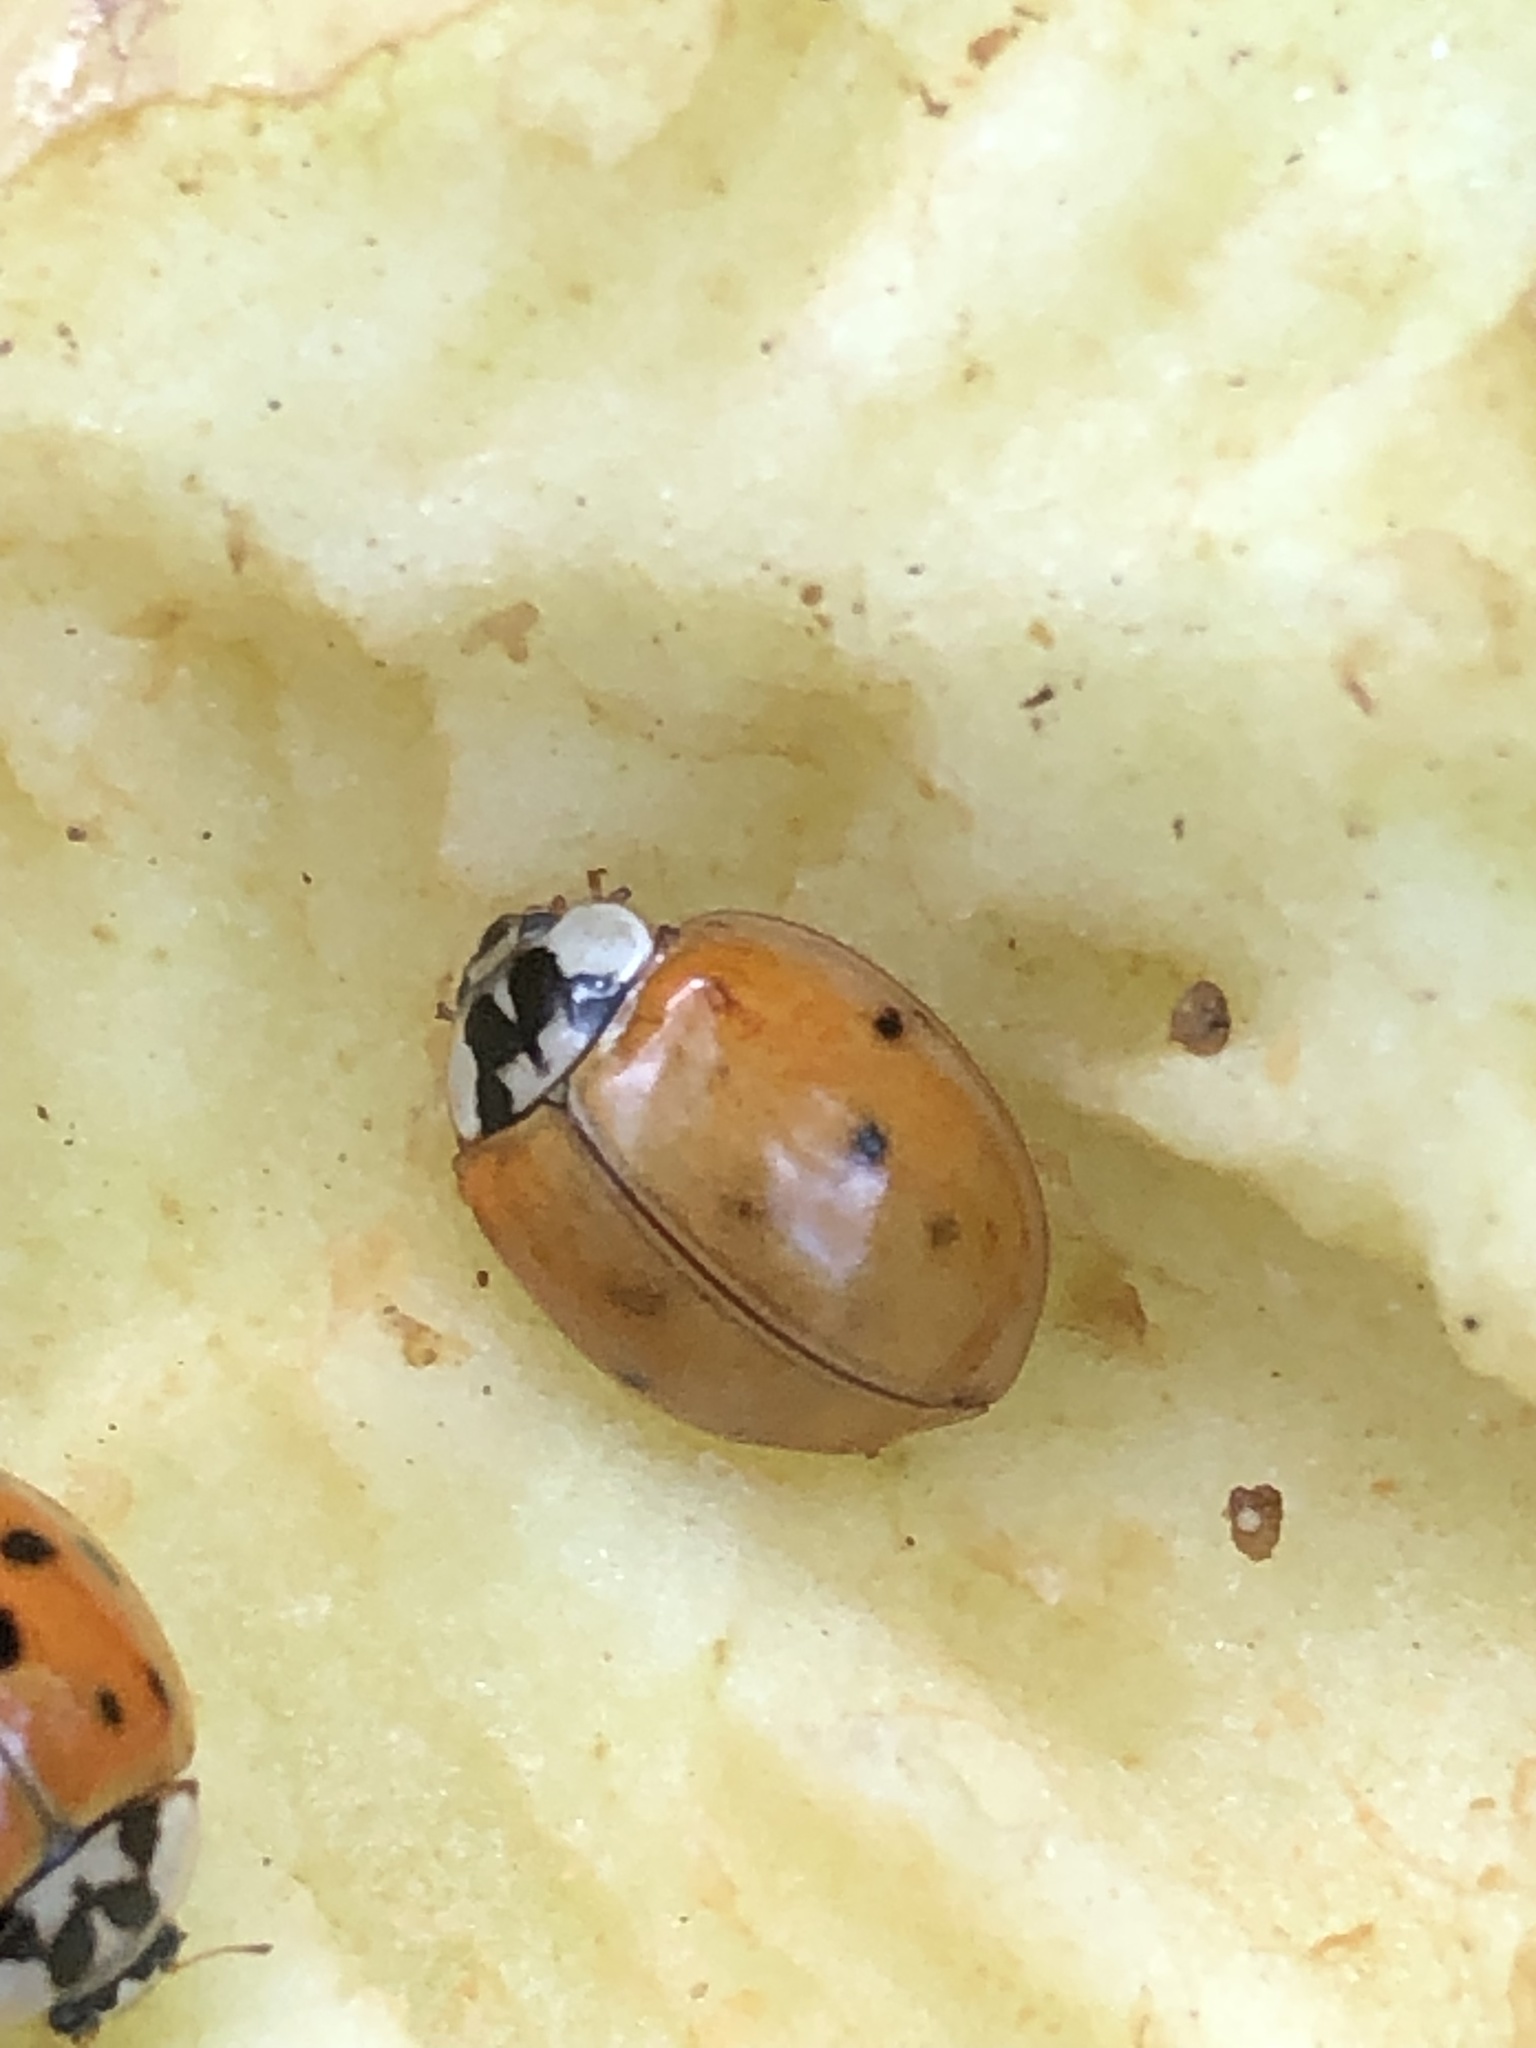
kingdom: Animalia
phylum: Arthropoda
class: Insecta
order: Coleoptera
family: Coccinellidae
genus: Harmonia
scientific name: Harmonia axyridis
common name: Harlequin ladybird
